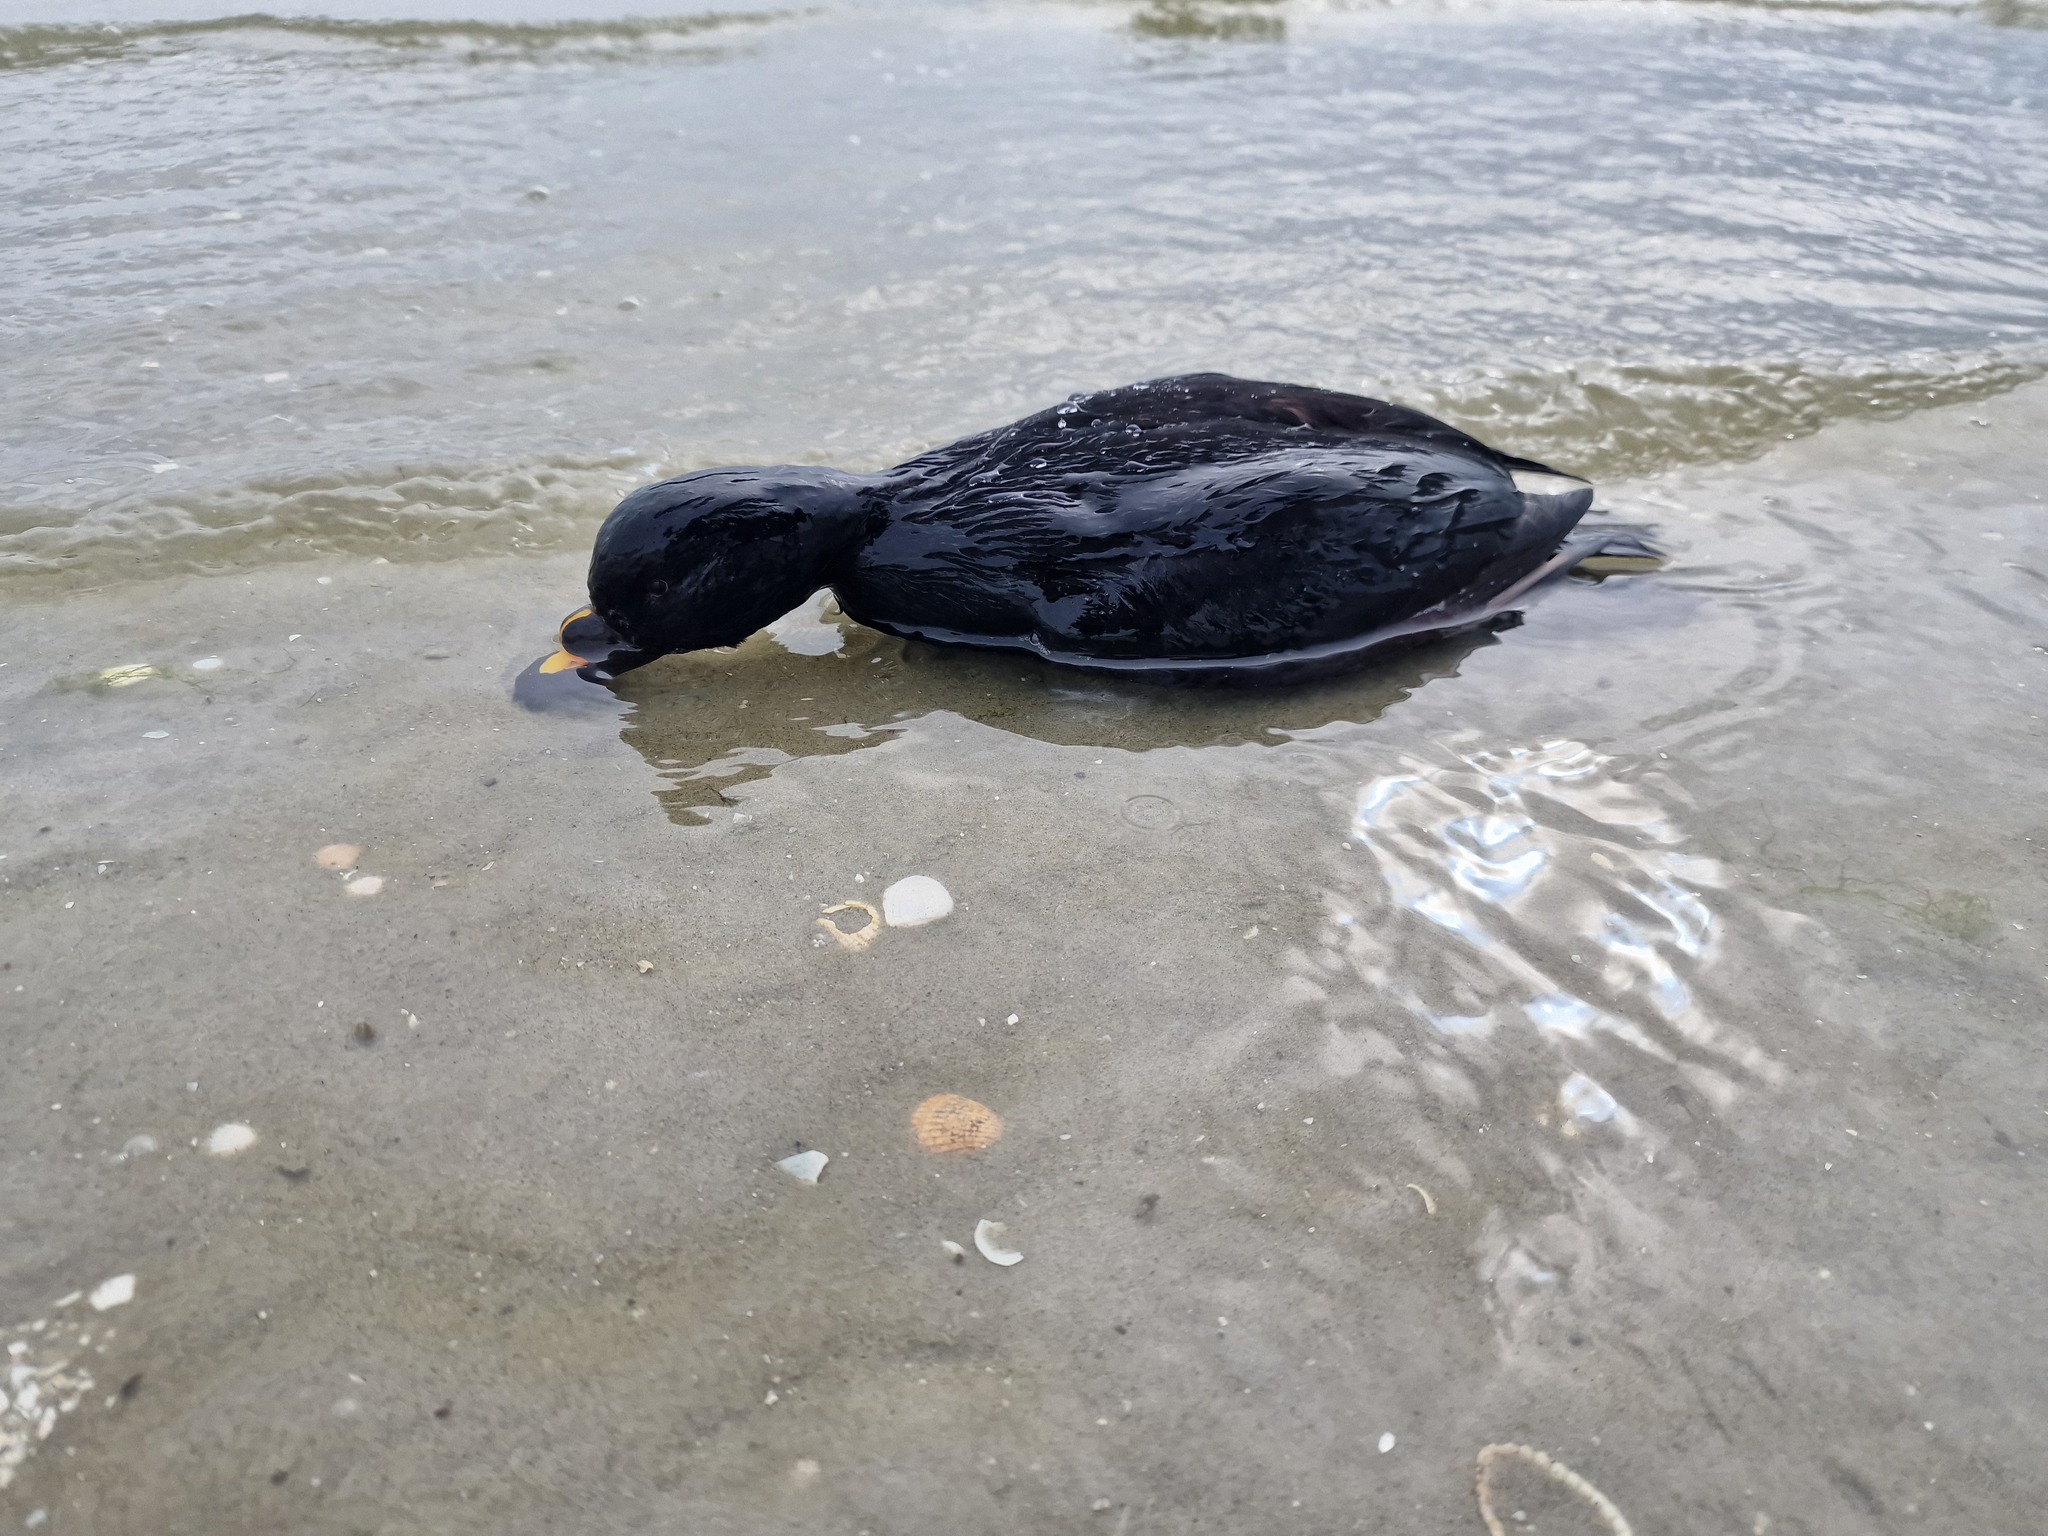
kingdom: Animalia
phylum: Chordata
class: Aves
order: Anseriformes
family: Anatidae
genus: Melanitta
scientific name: Melanitta nigra
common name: Common scoter
